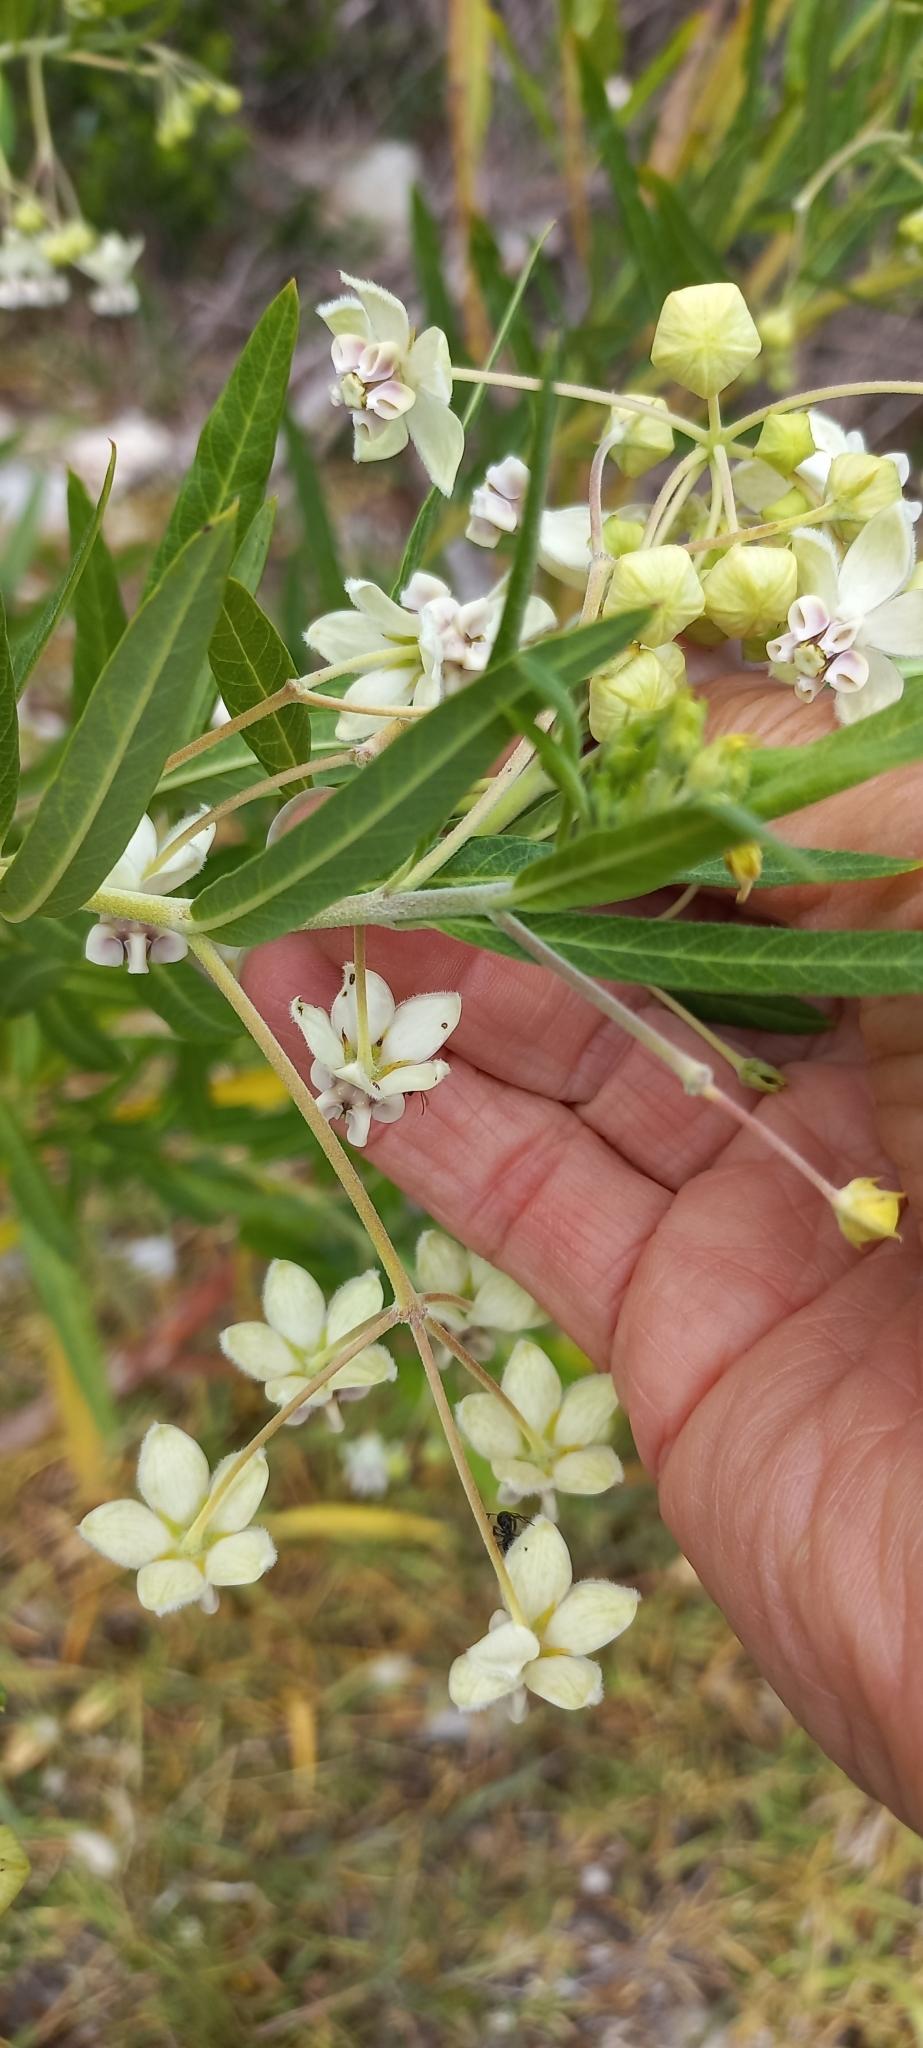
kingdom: Plantae
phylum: Tracheophyta
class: Magnoliopsida
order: Gentianales
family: Apocynaceae
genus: Gomphocarpus
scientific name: Gomphocarpus physocarpus
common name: Balloon cotton bush
